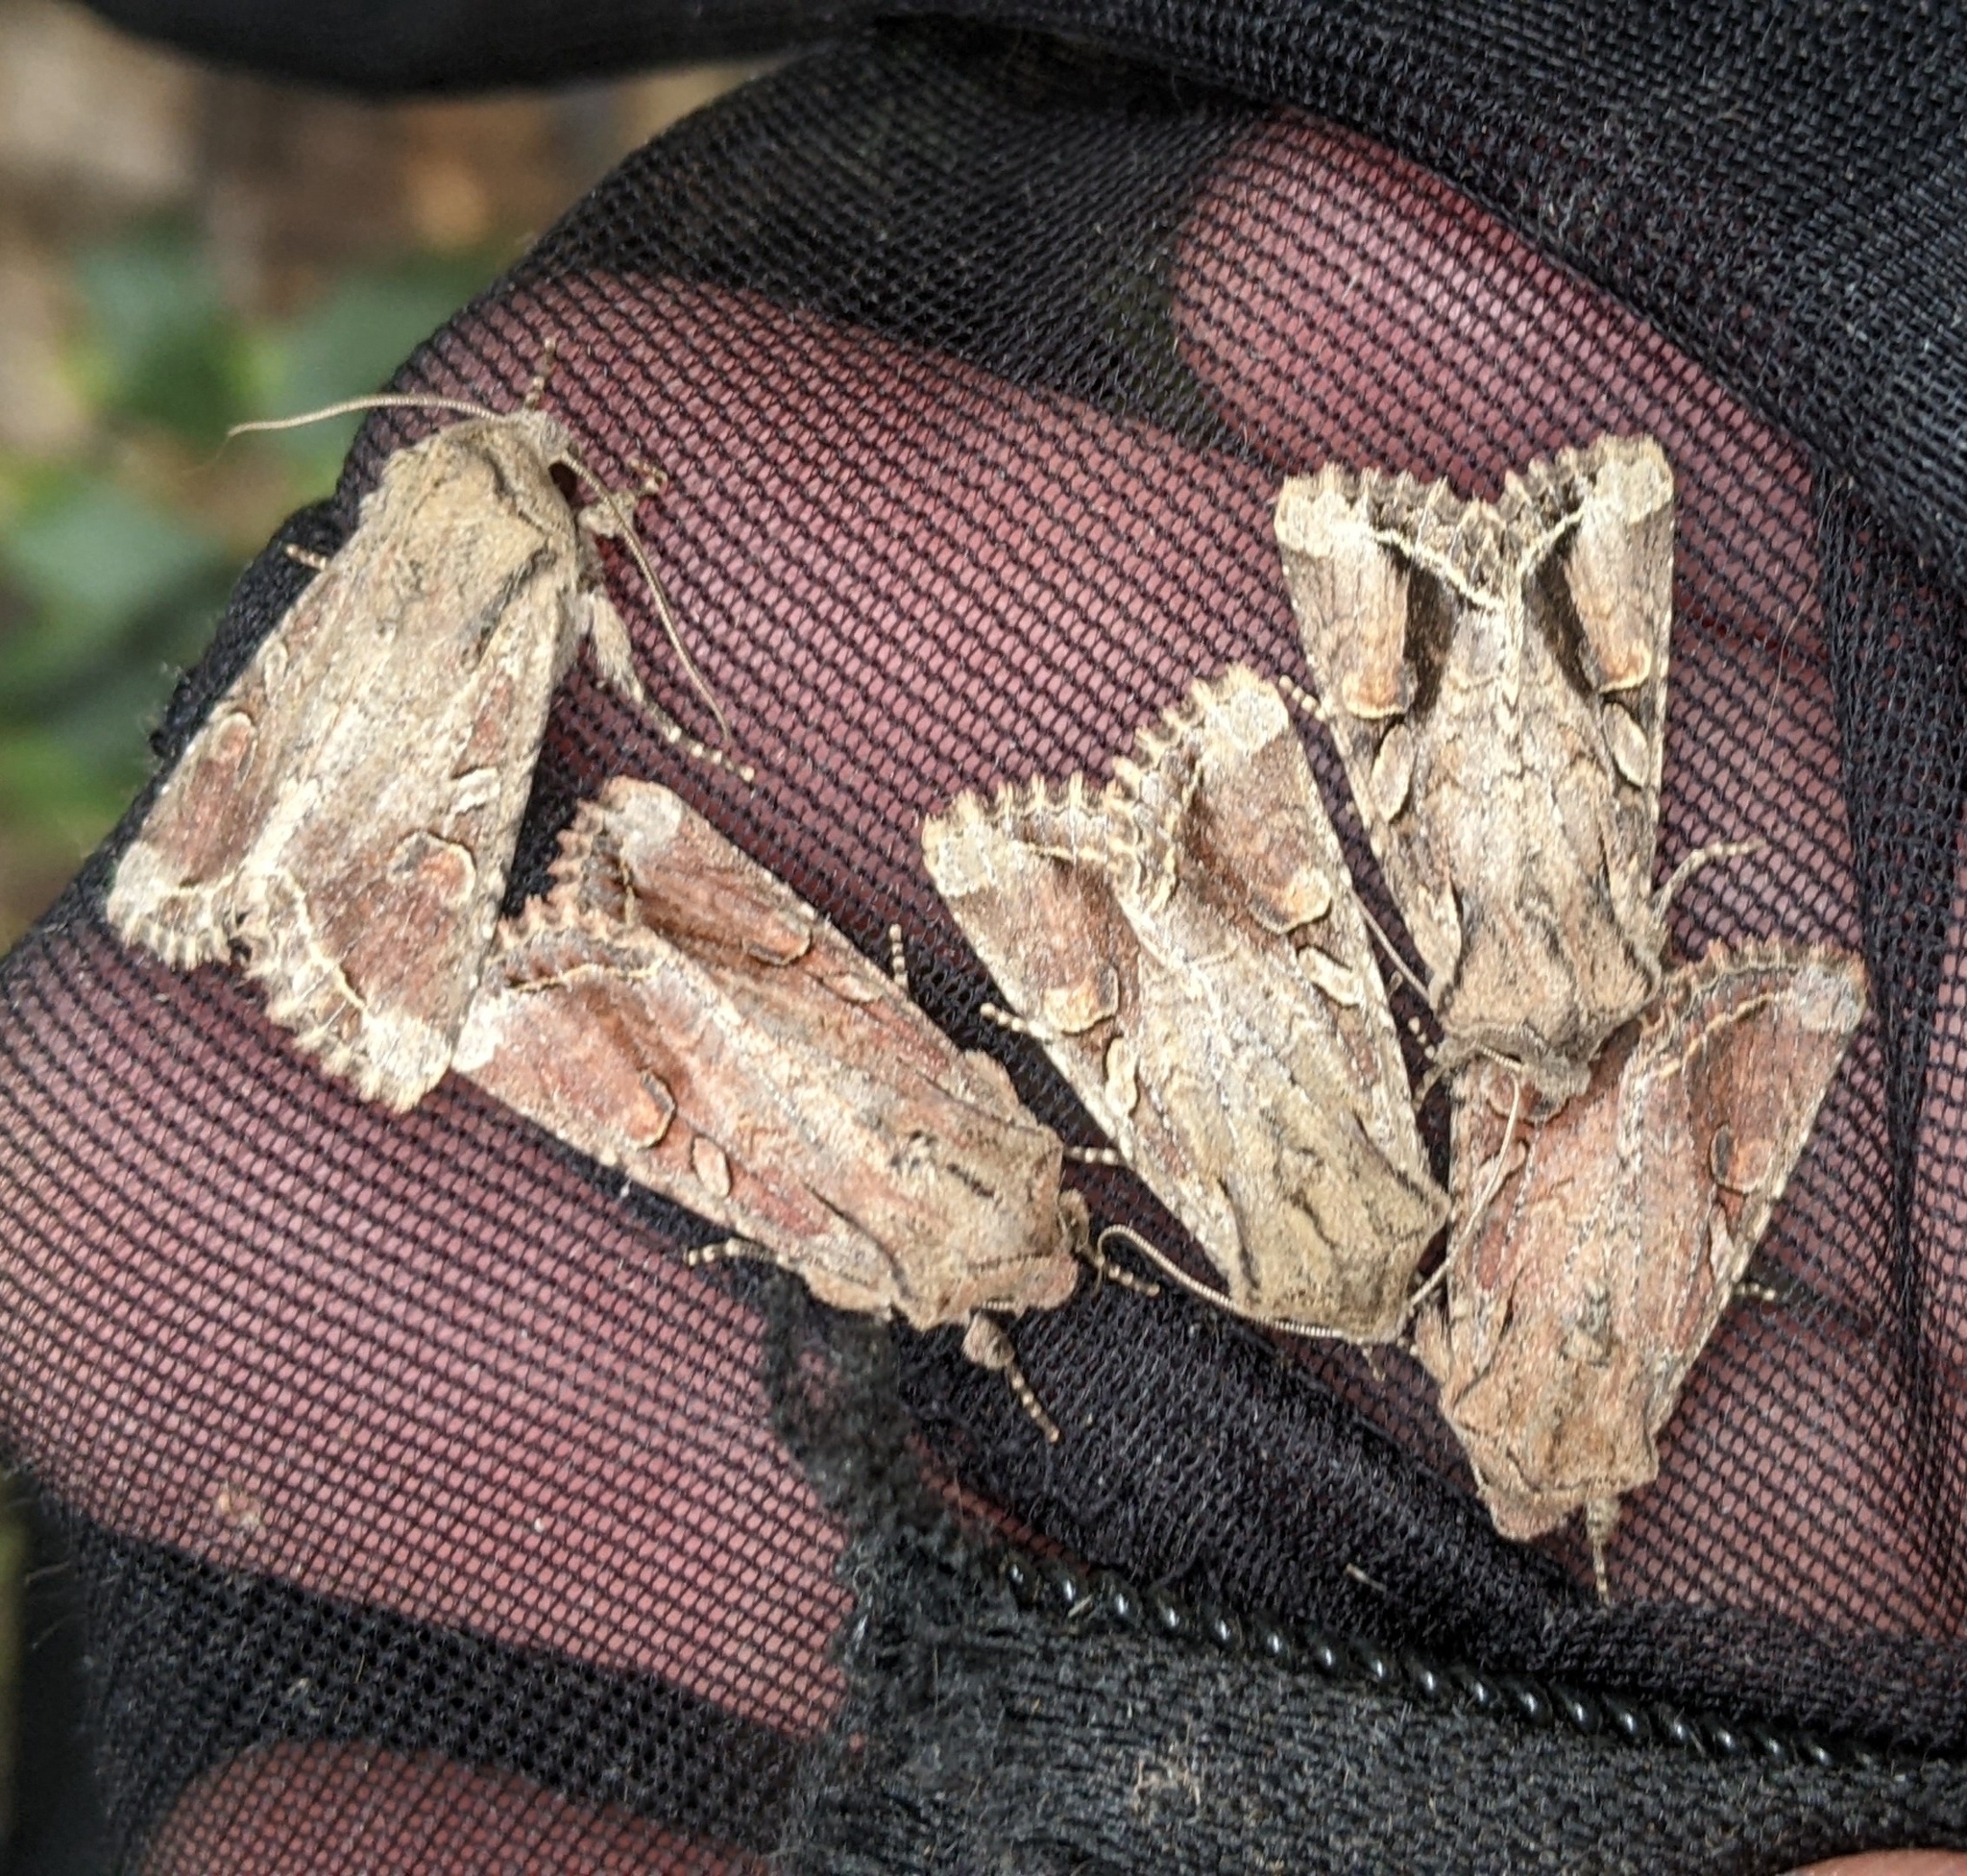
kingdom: Animalia
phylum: Arthropoda
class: Insecta
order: Lepidoptera
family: Noctuidae
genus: Egira
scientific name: Egira rubrica
